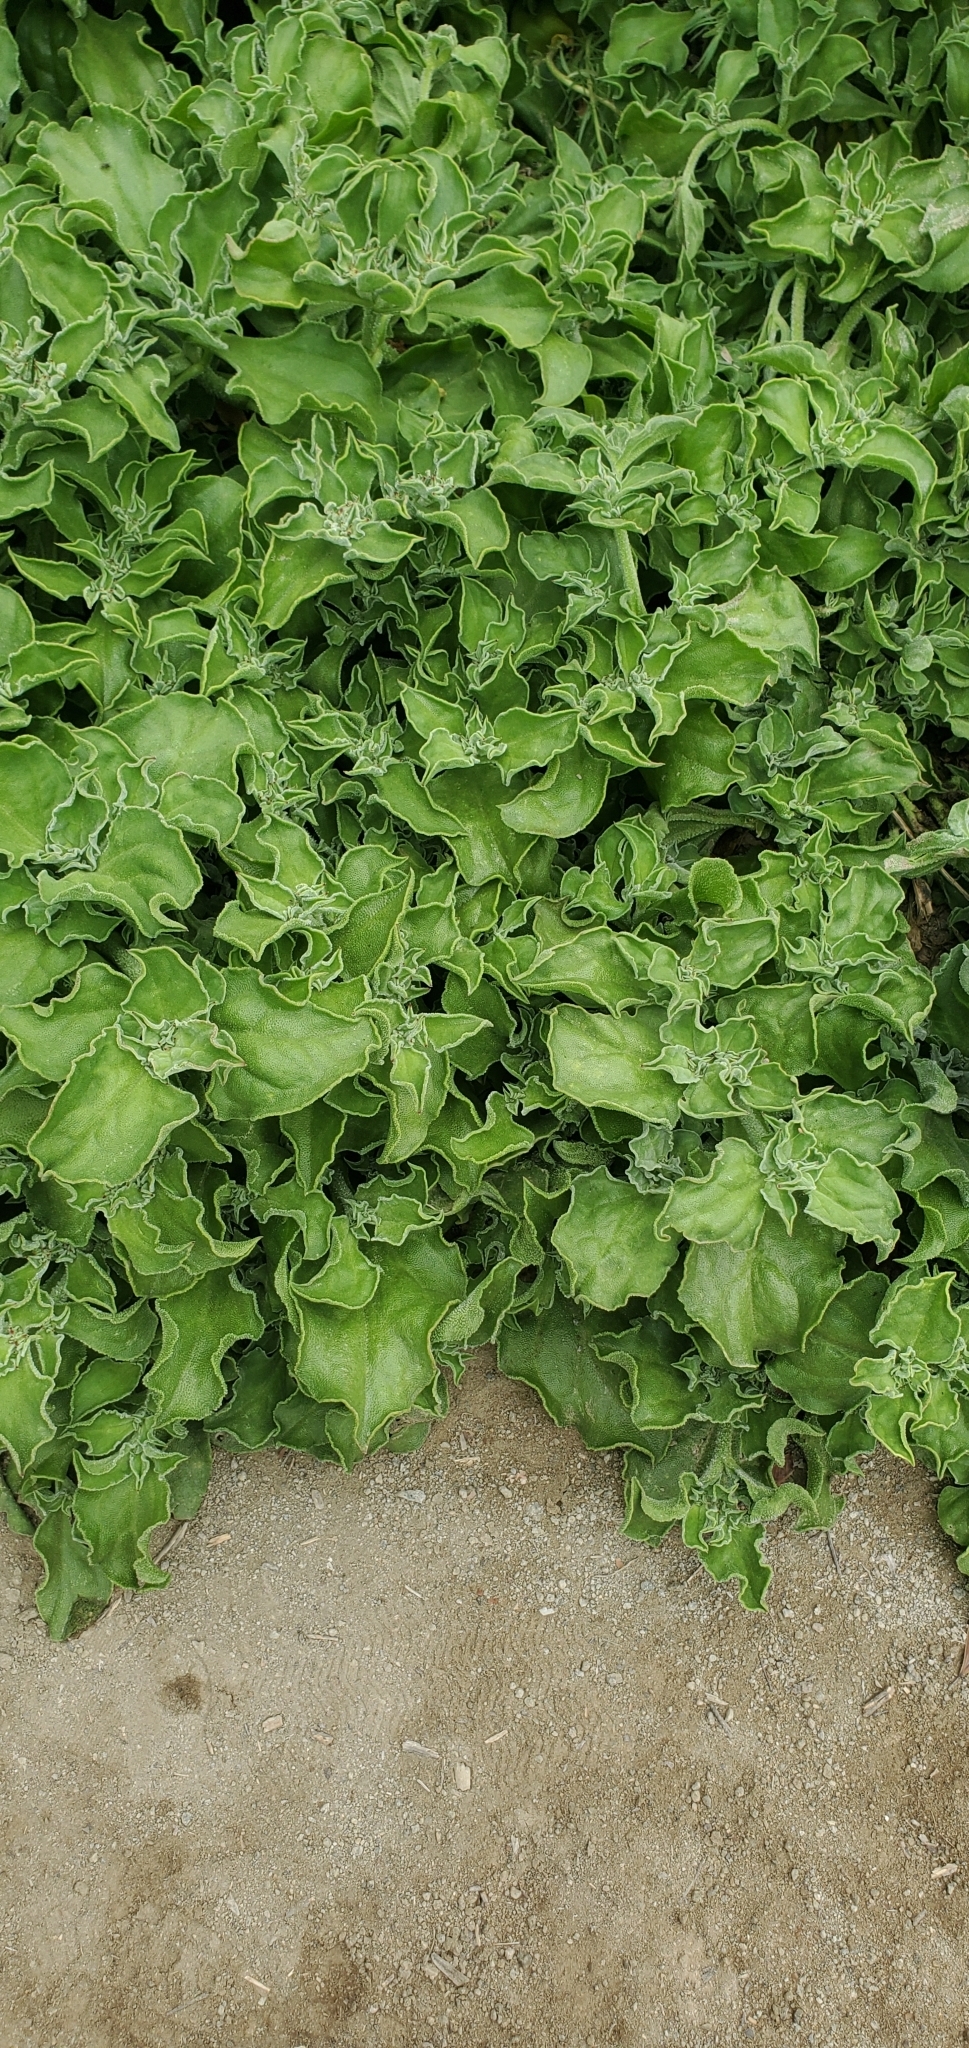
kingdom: Plantae
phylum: Tracheophyta
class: Magnoliopsida
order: Caryophyllales
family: Aizoaceae
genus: Mesembryanthemum
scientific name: Mesembryanthemum crystallinum
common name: Common iceplant
